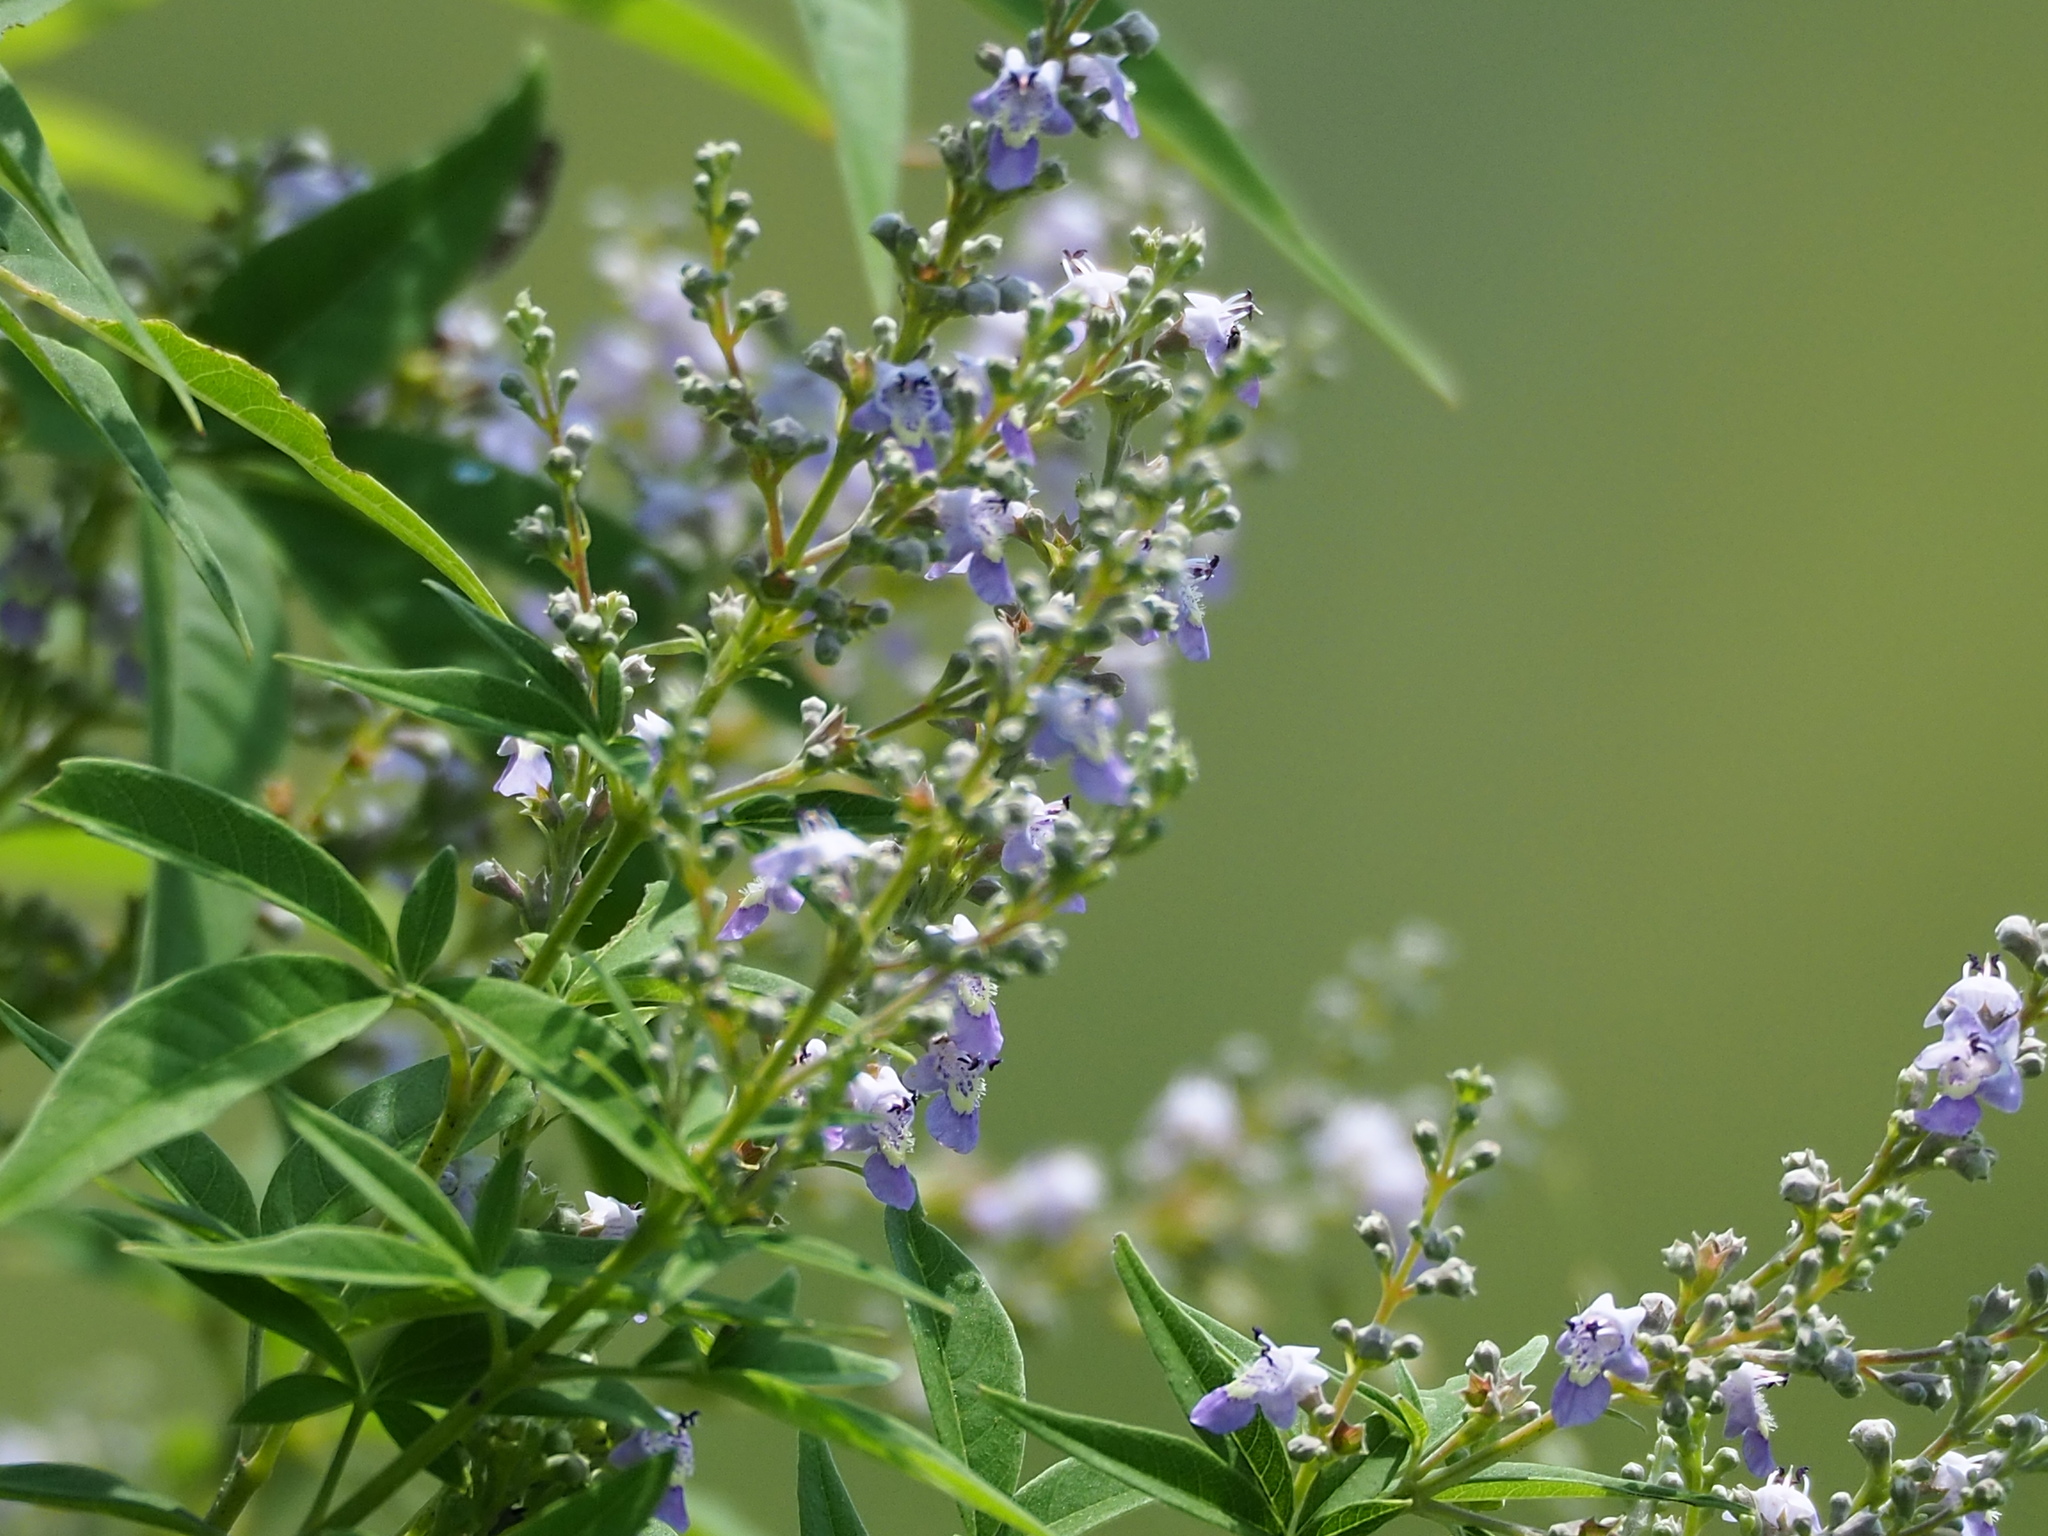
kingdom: Plantae
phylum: Tracheophyta
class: Magnoliopsida
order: Lamiales
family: Lamiaceae
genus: Vitex
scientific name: Vitex negundo
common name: Chinese chastetree
